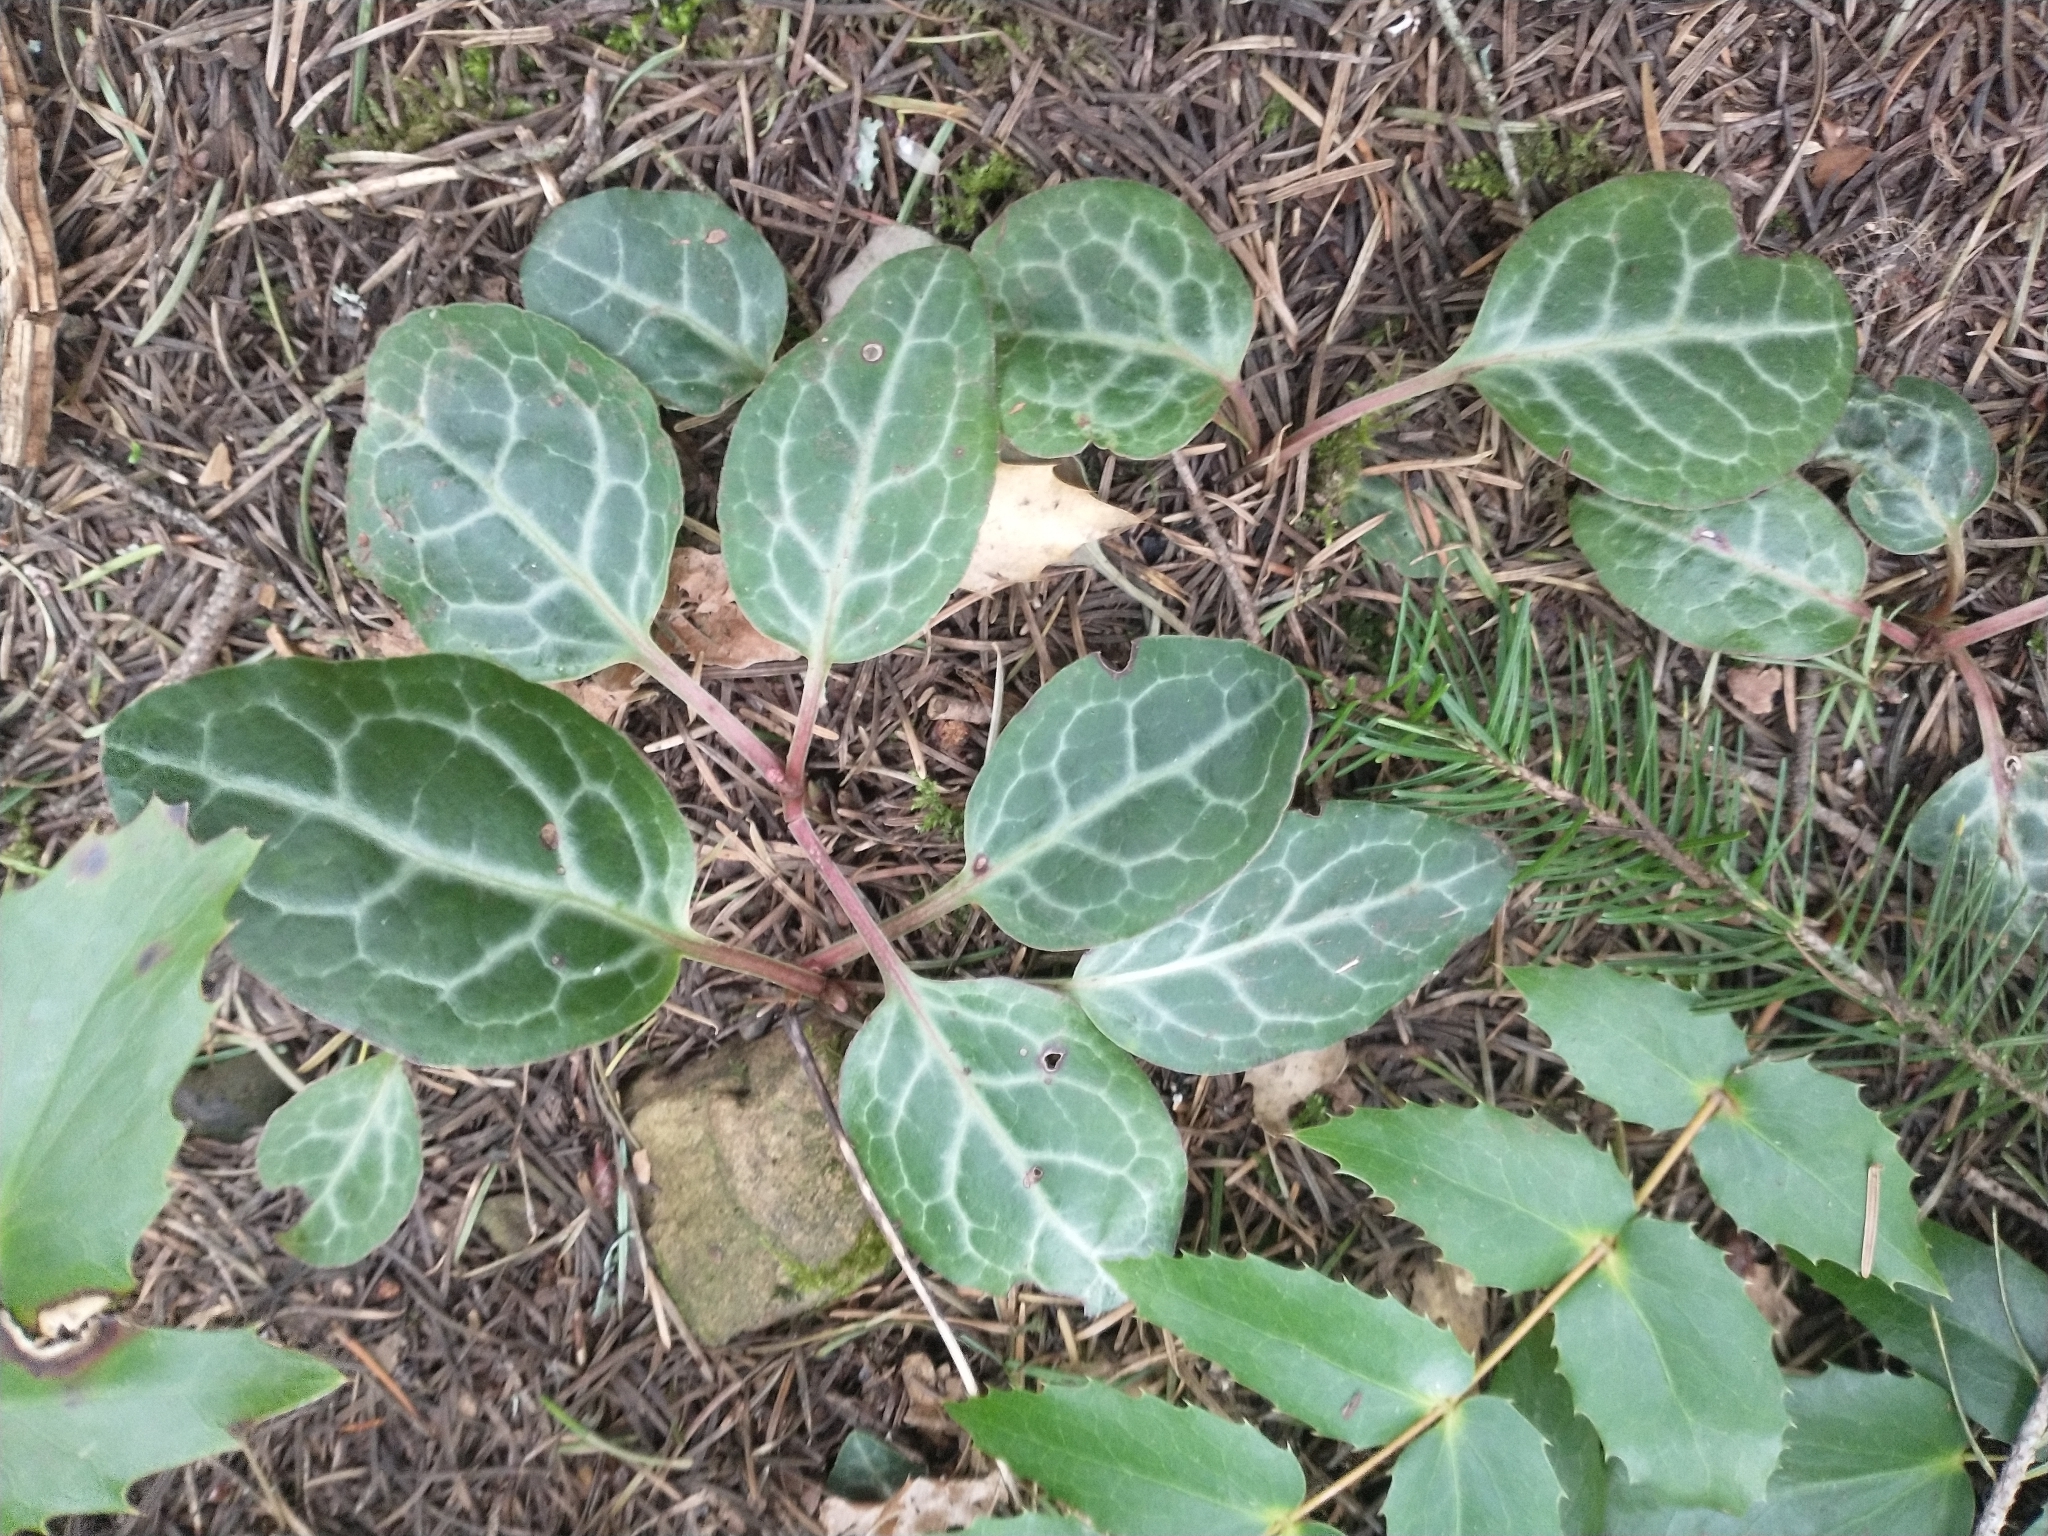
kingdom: Plantae
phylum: Tracheophyta
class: Magnoliopsida
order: Ericales
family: Ericaceae
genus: Pyrola
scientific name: Pyrola picta
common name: White-vein wintergreen
